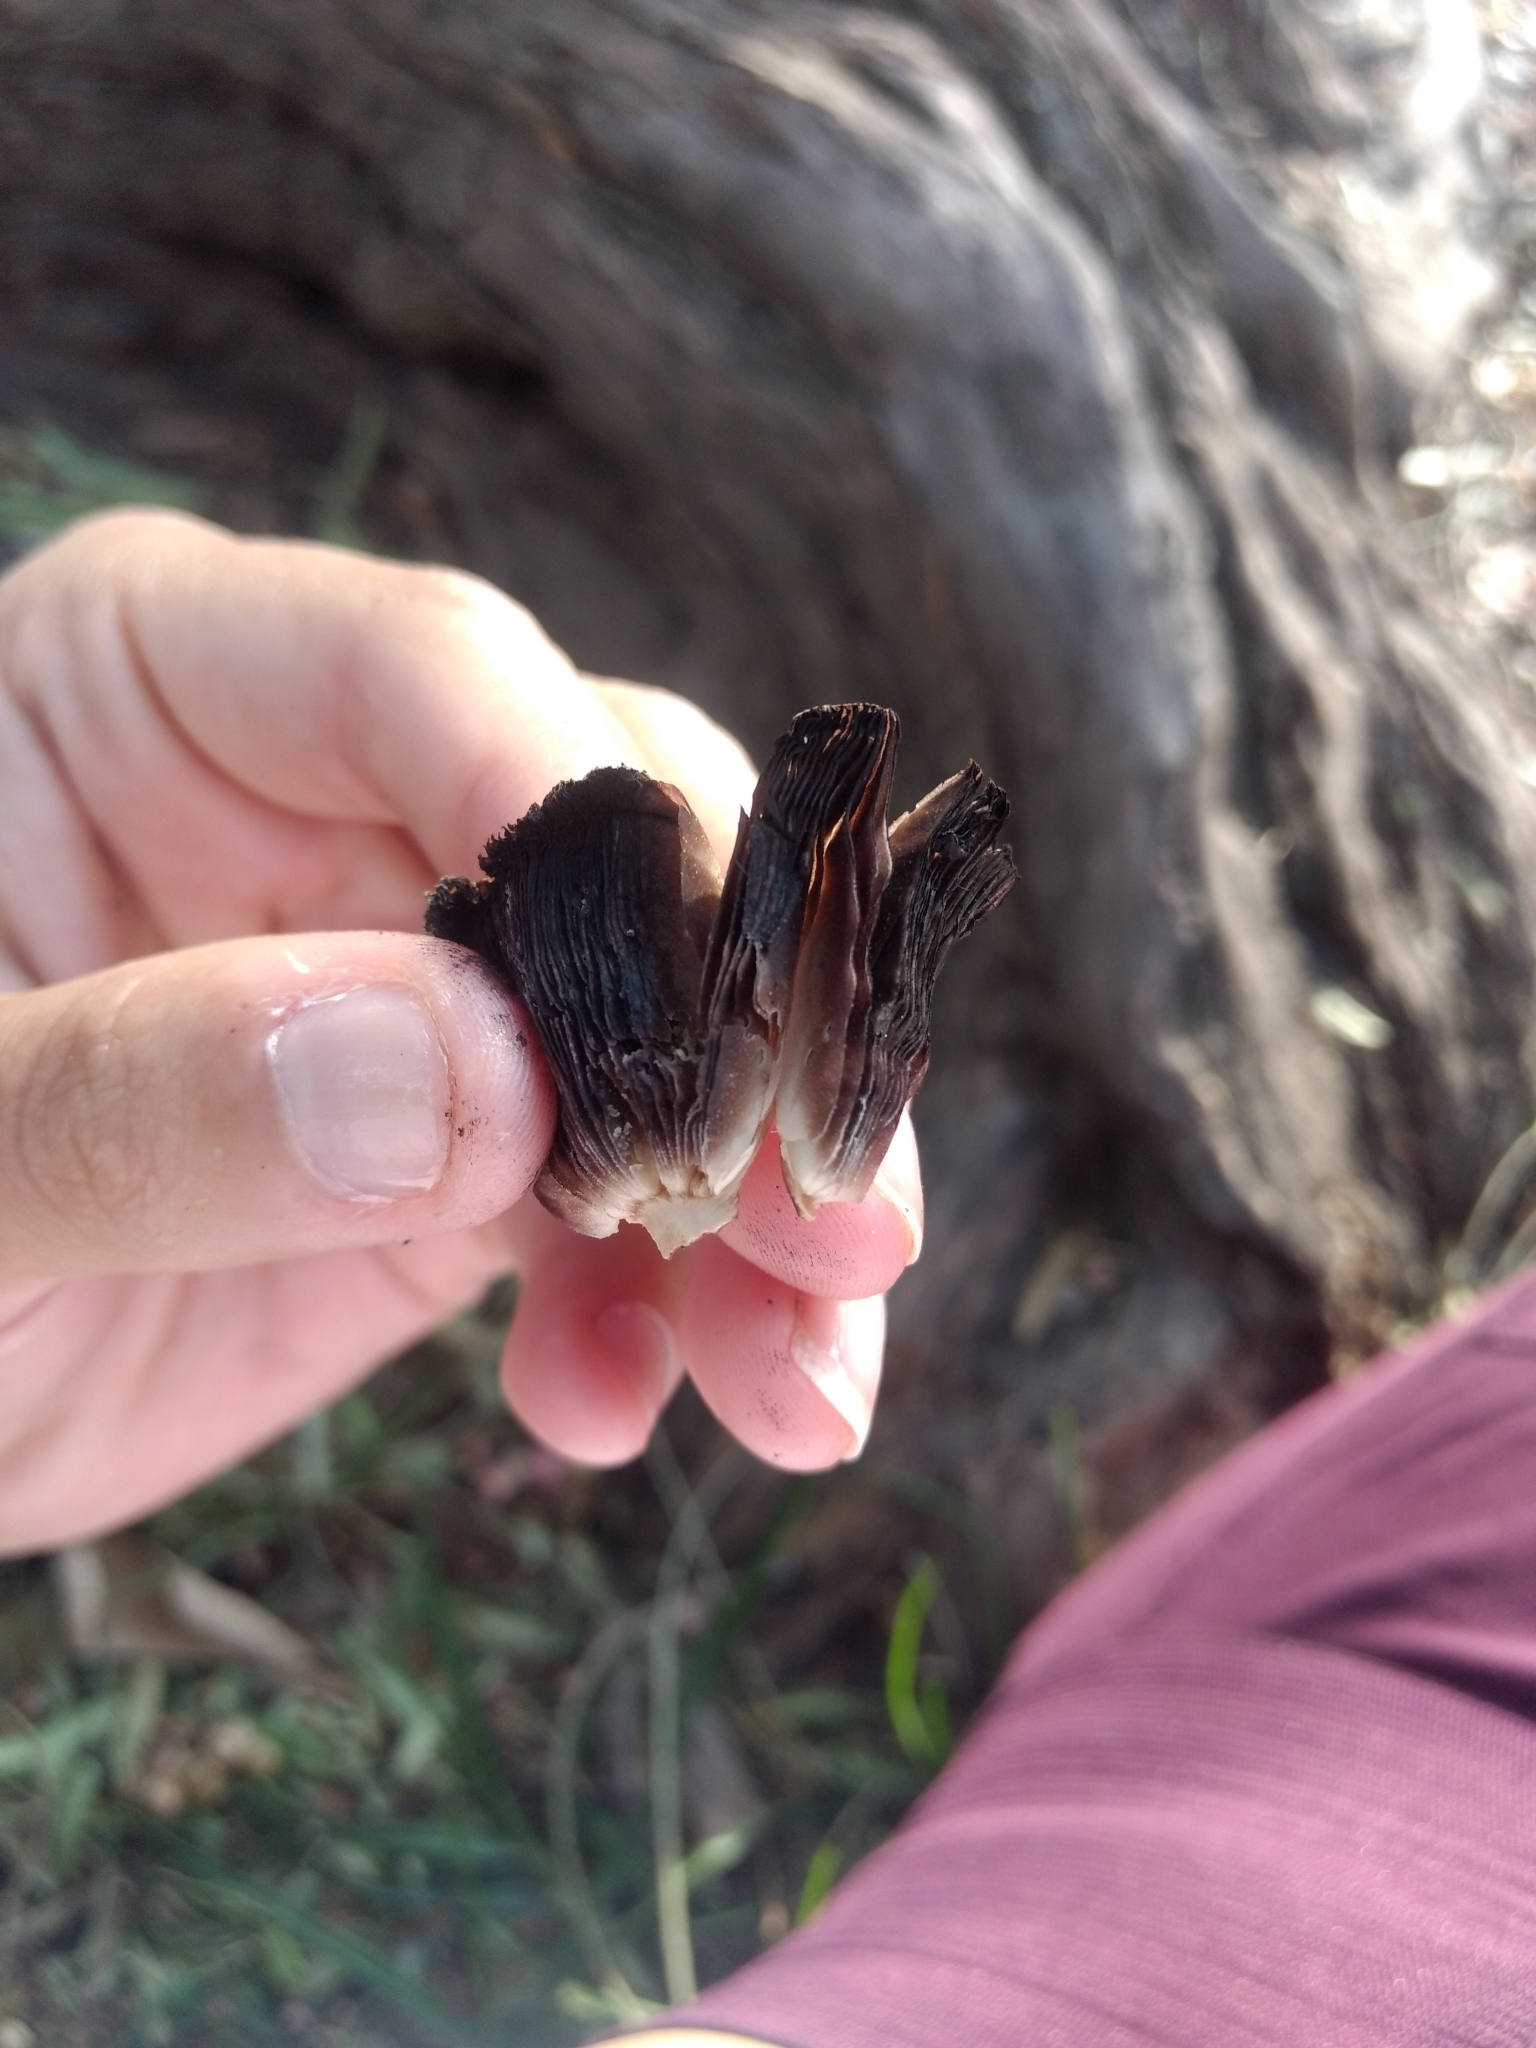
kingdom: Fungi
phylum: Basidiomycota
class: Agaricomycetes
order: Agaricales
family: Psathyrellaceae
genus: Coprinellus
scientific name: Coprinellus micaceus
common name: Glistening ink-cap
